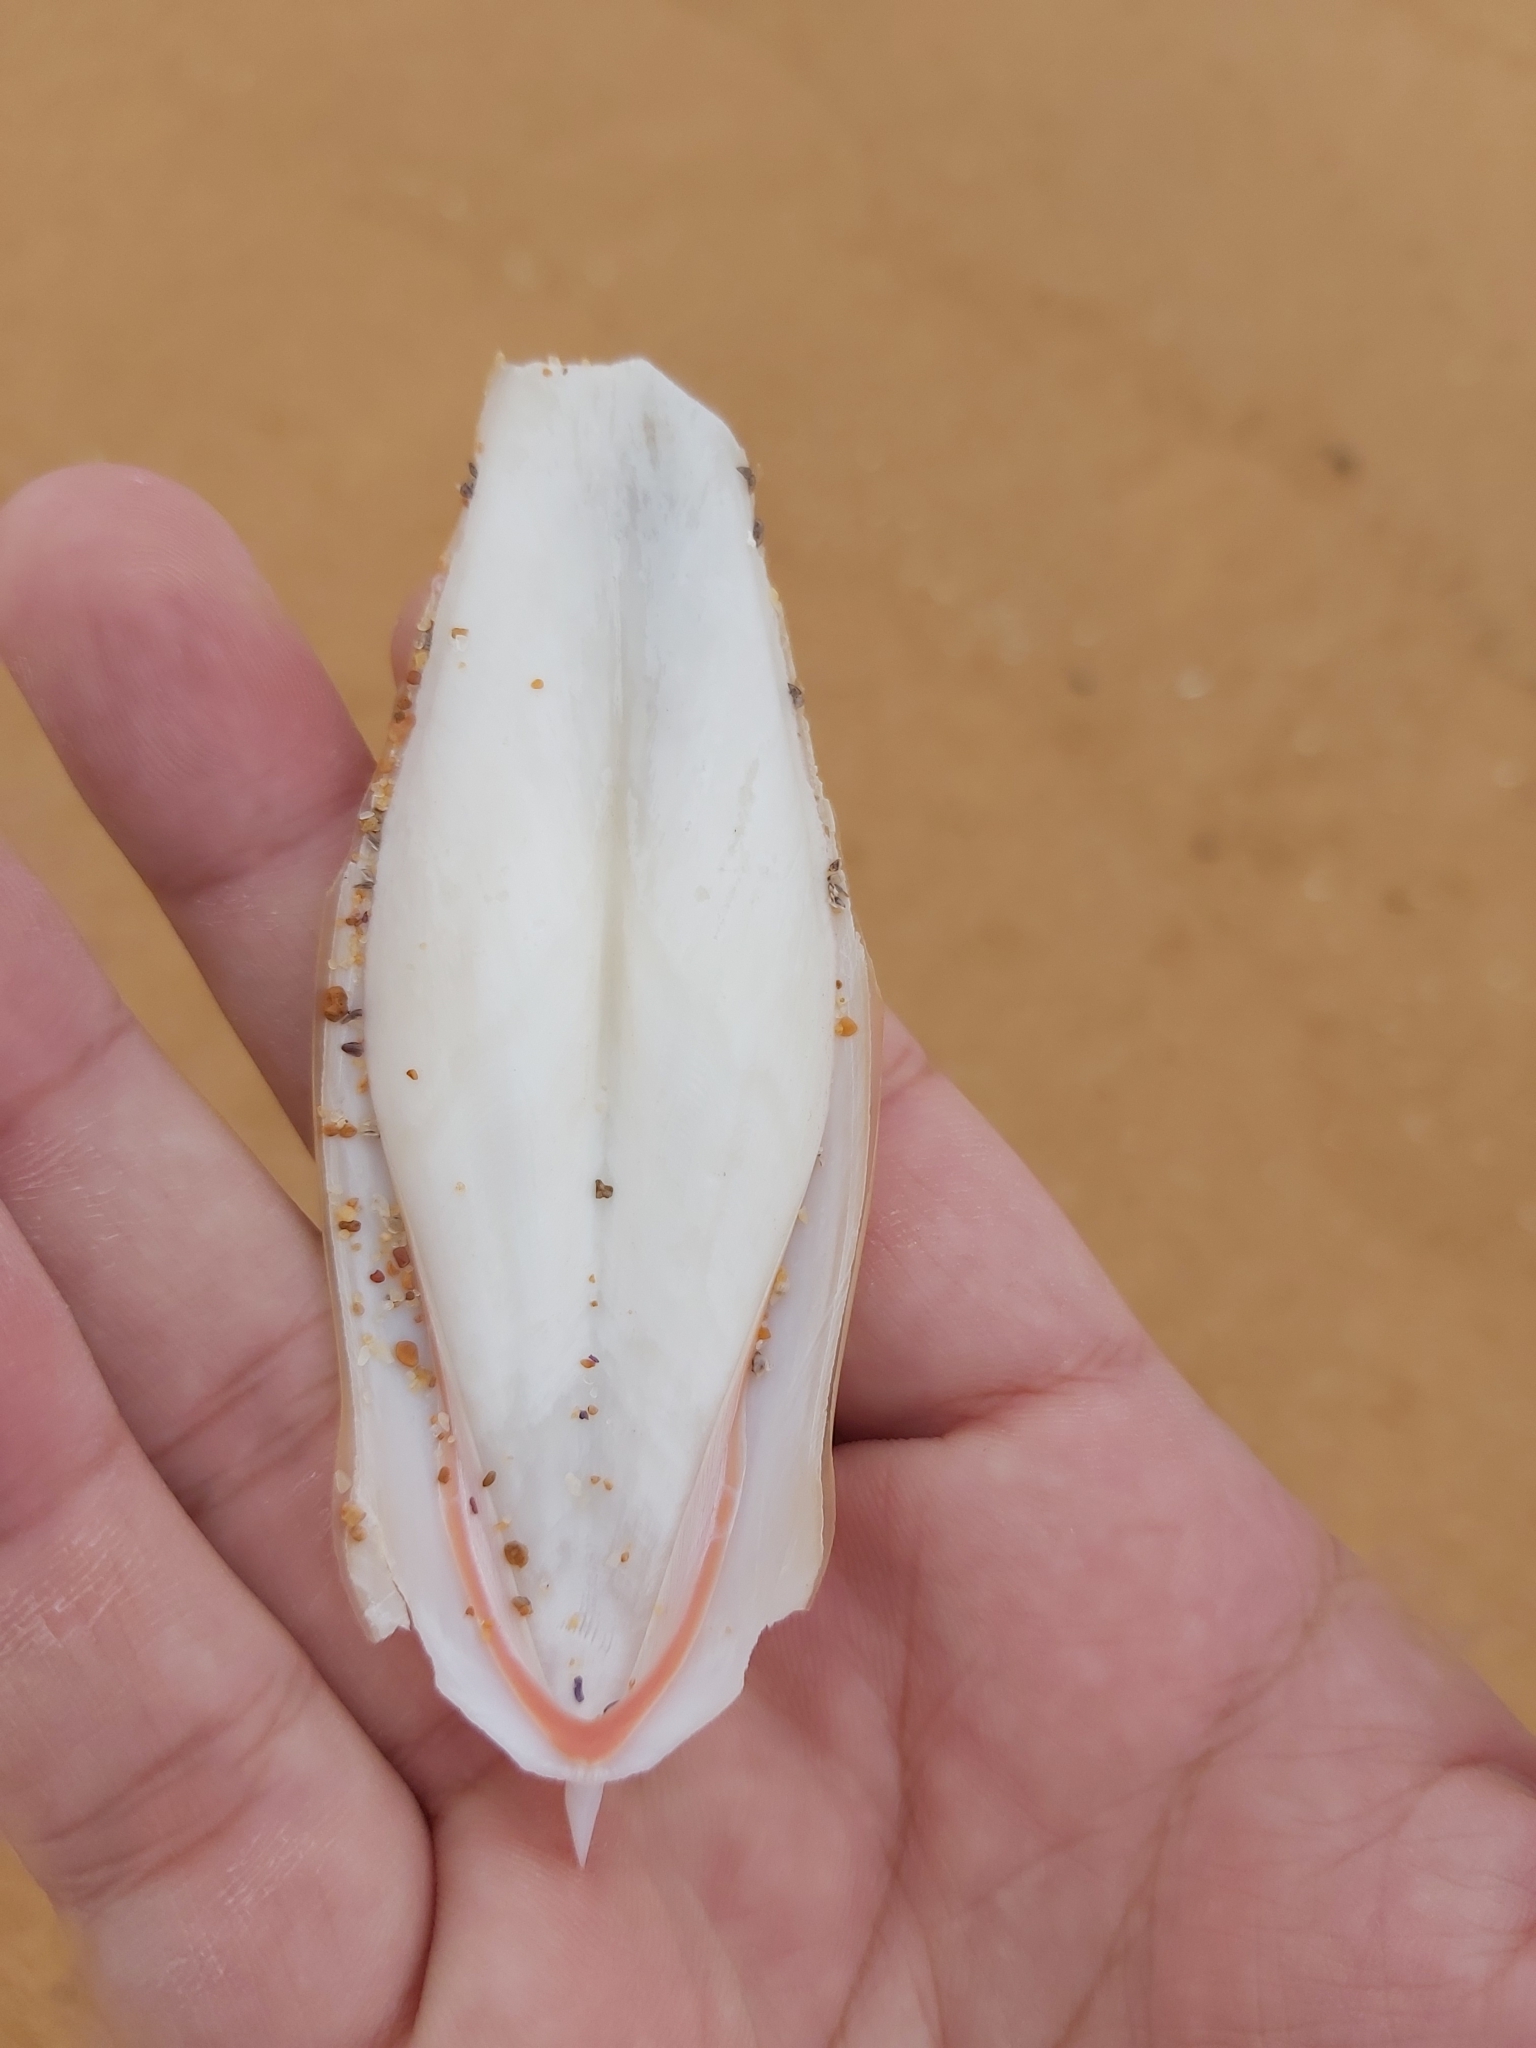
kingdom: Animalia
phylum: Mollusca
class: Cephalopoda
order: Sepiida
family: Sepiidae
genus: Ascarosepion
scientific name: Ascarosepion rozella
